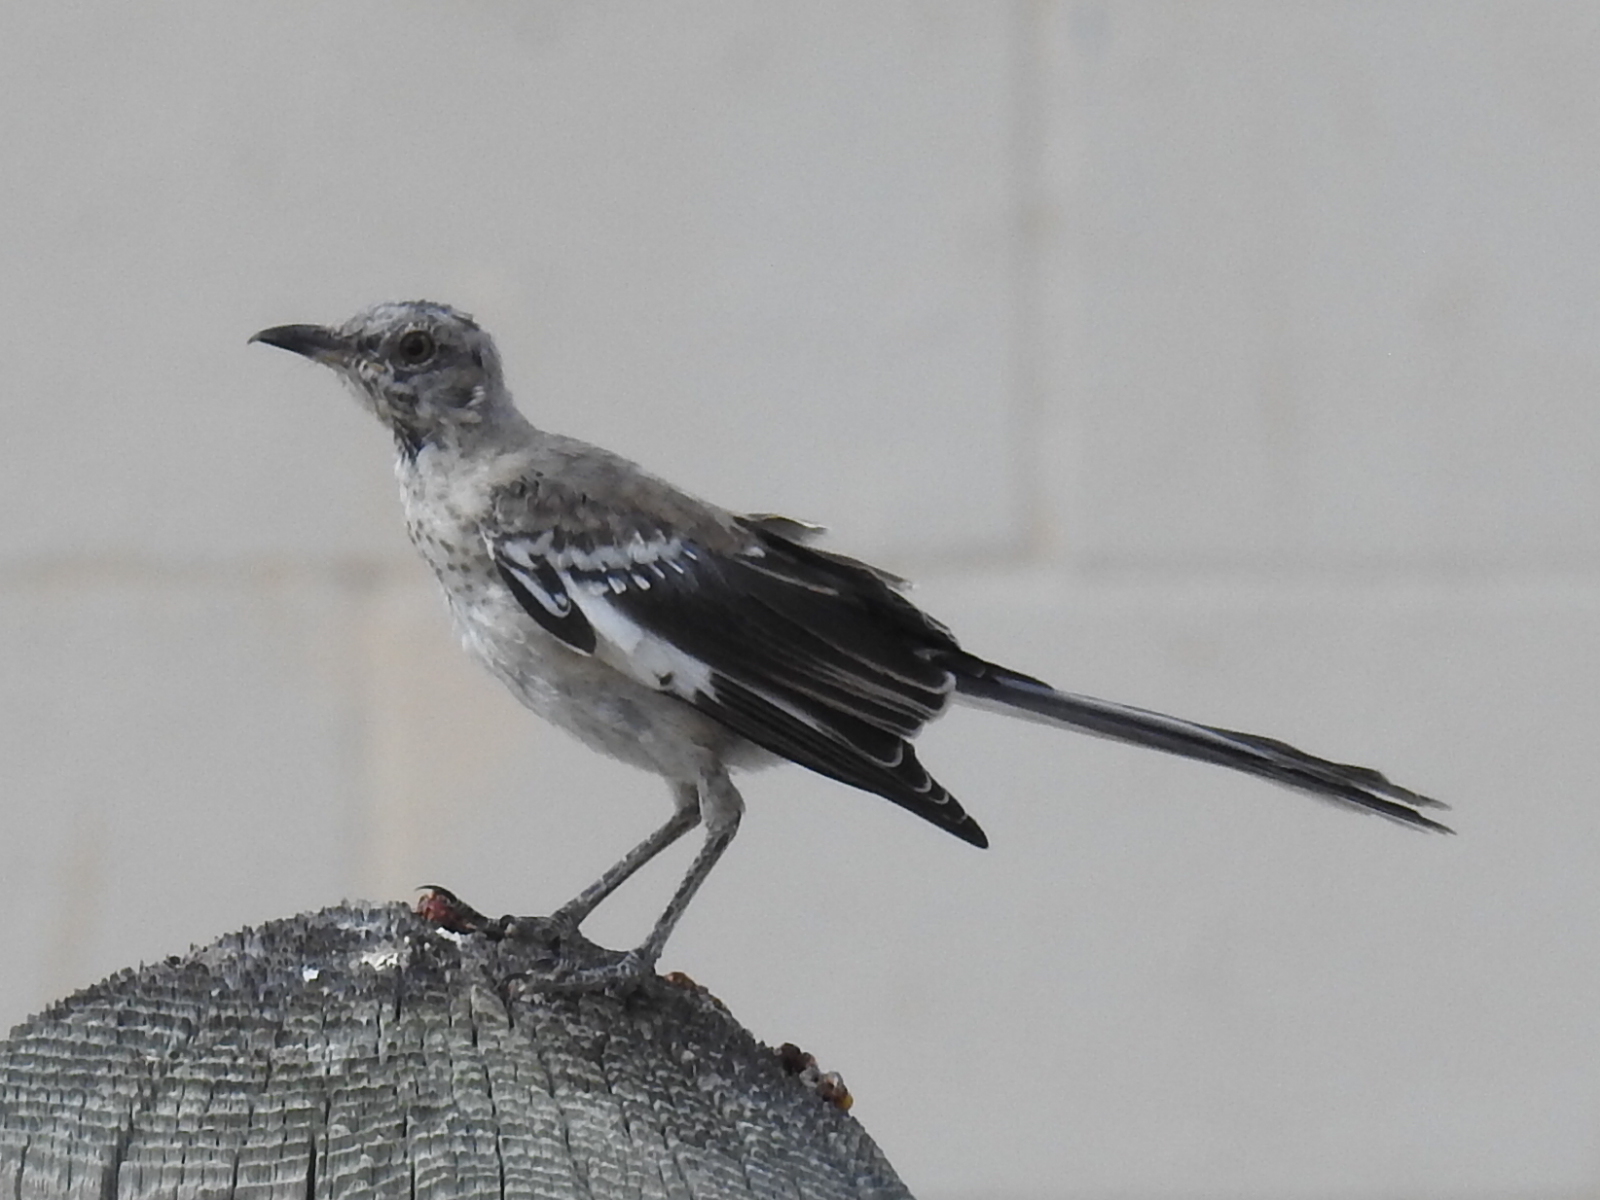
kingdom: Animalia
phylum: Chordata
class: Aves
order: Passeriformes
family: Mimidae
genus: Mimus
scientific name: Mimus polyglottos
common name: Northern mockingbird
